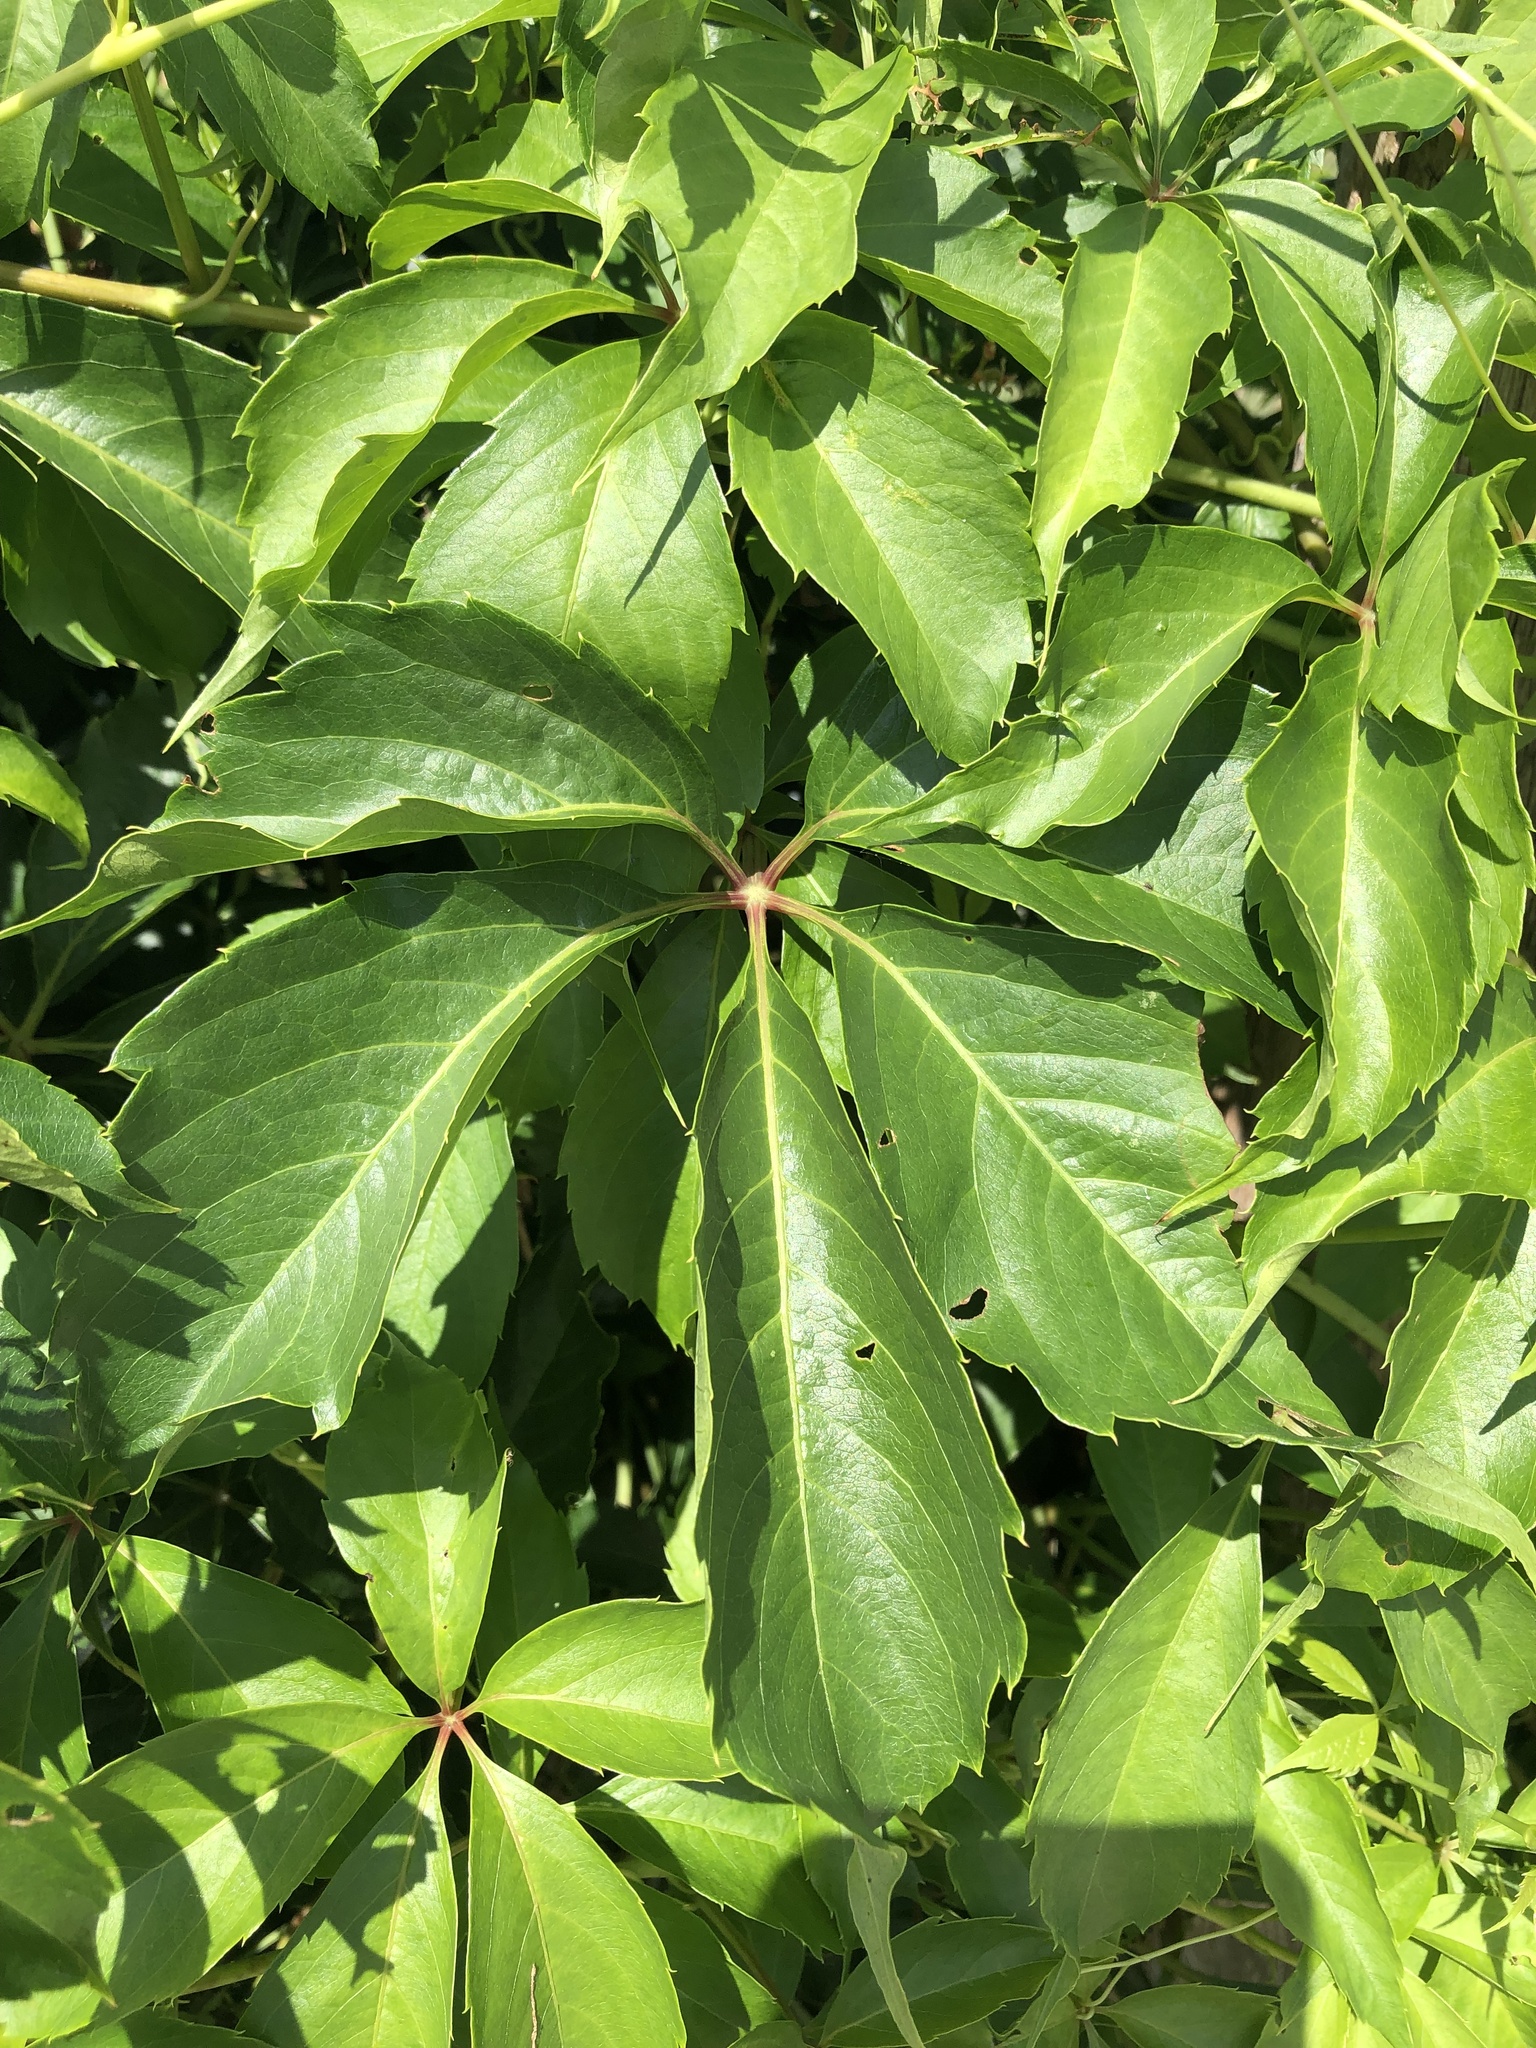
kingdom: Plantae
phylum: Tracheophyta
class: Magnoliopsida
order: Vitales
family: Vitaceae
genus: Parthenocissus
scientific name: Parthenocissus quinquefolia
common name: Virginia-creeper
